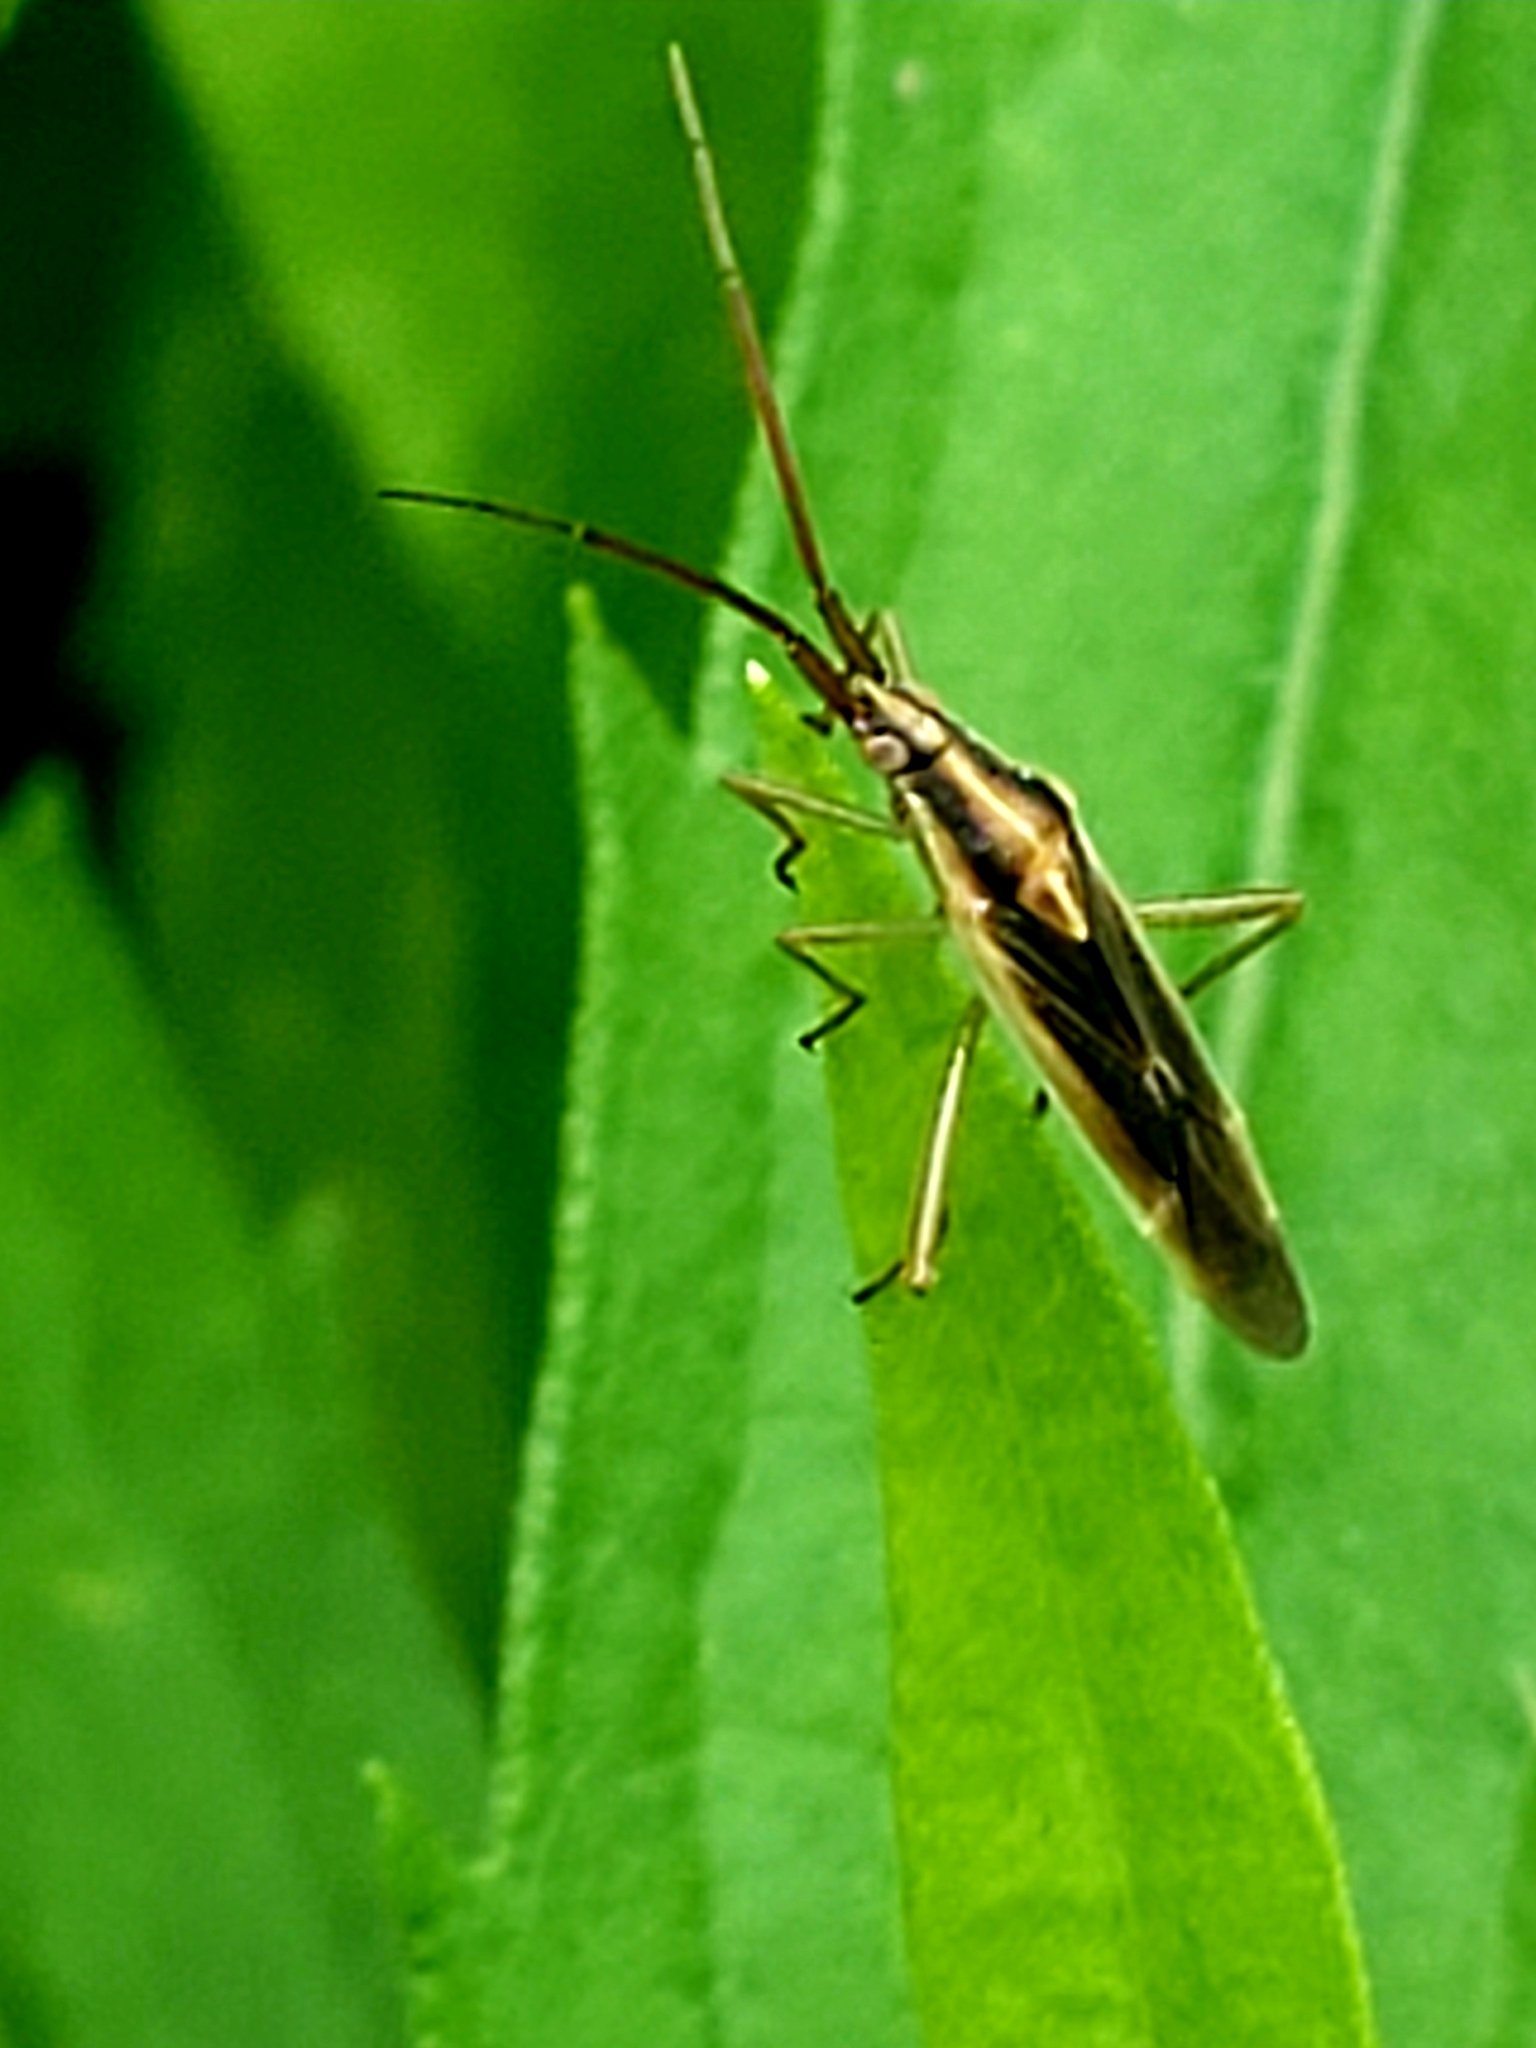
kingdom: Animalia
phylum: Arthropoda
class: Insecta
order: Hemiptera
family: Miridae
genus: Stenodema
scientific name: Stenodema trispinosa
